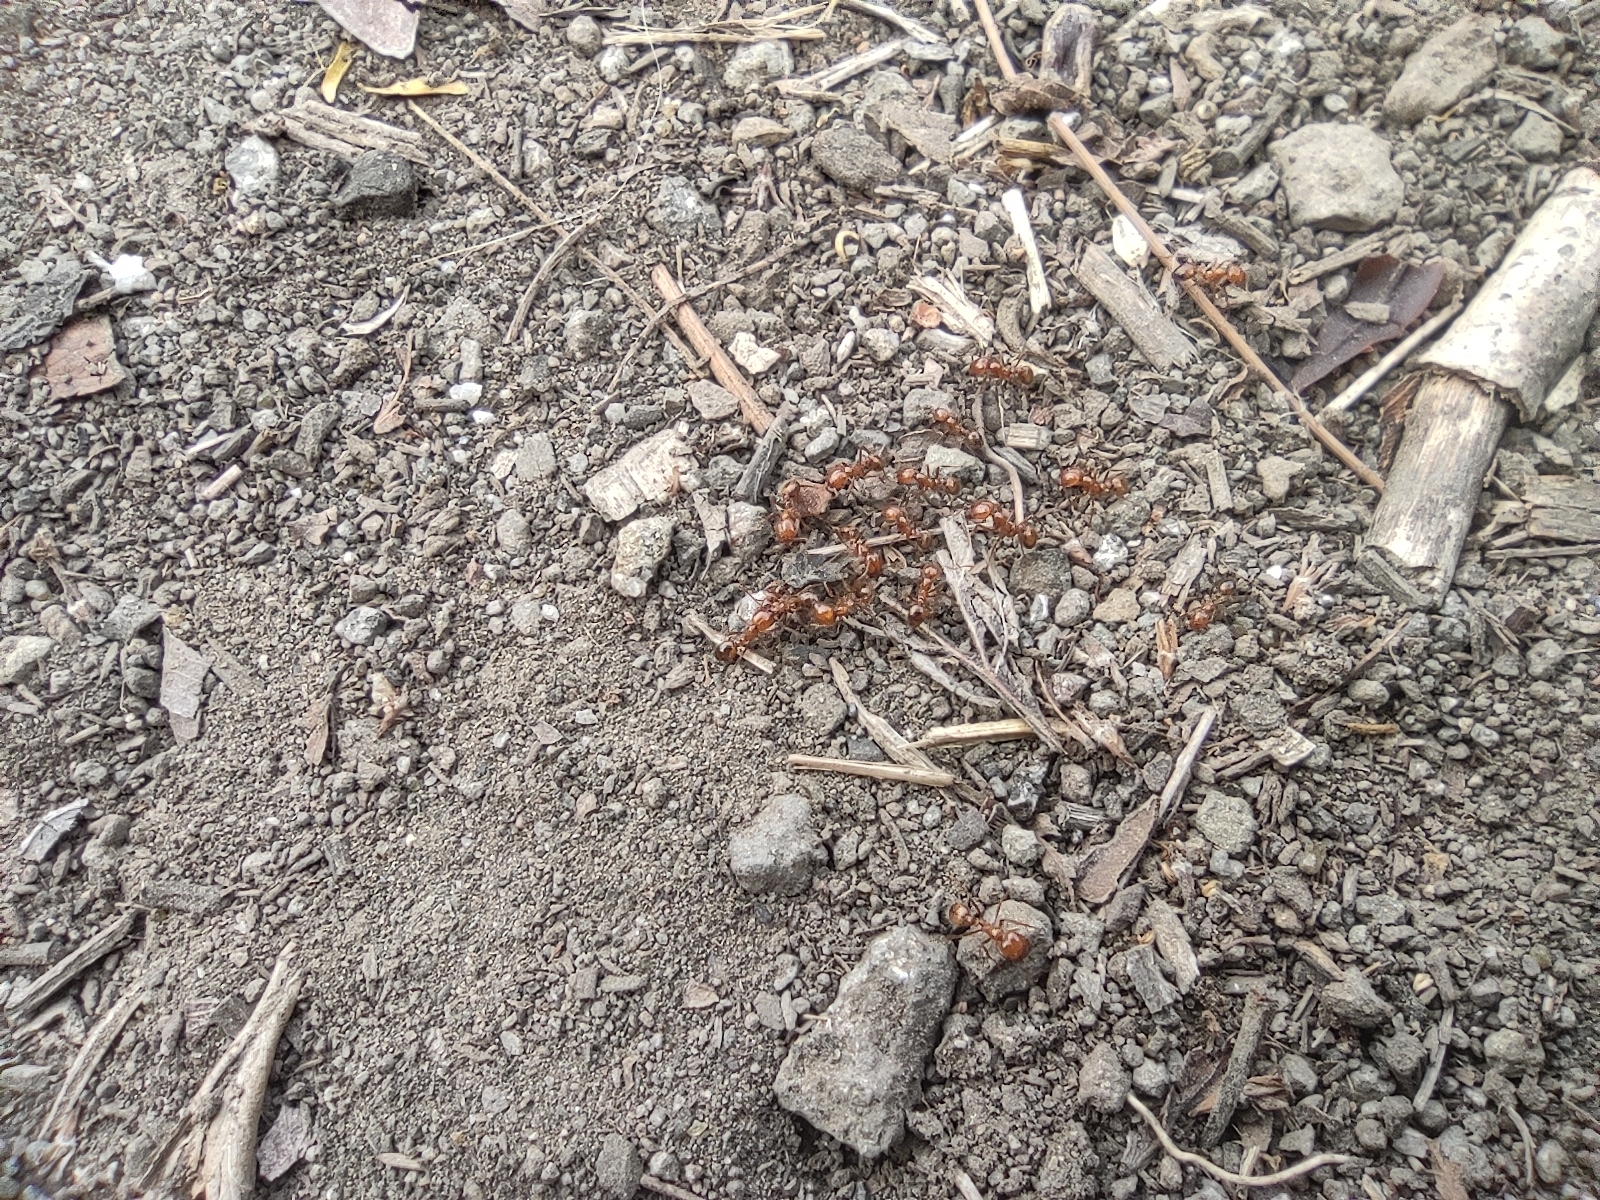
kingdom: Animalia
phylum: Arthropoda
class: Insecta
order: Hymenoptera
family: Formicidae
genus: Solenopsis
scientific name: Solenopsis geminata
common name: Tropical fire ant
